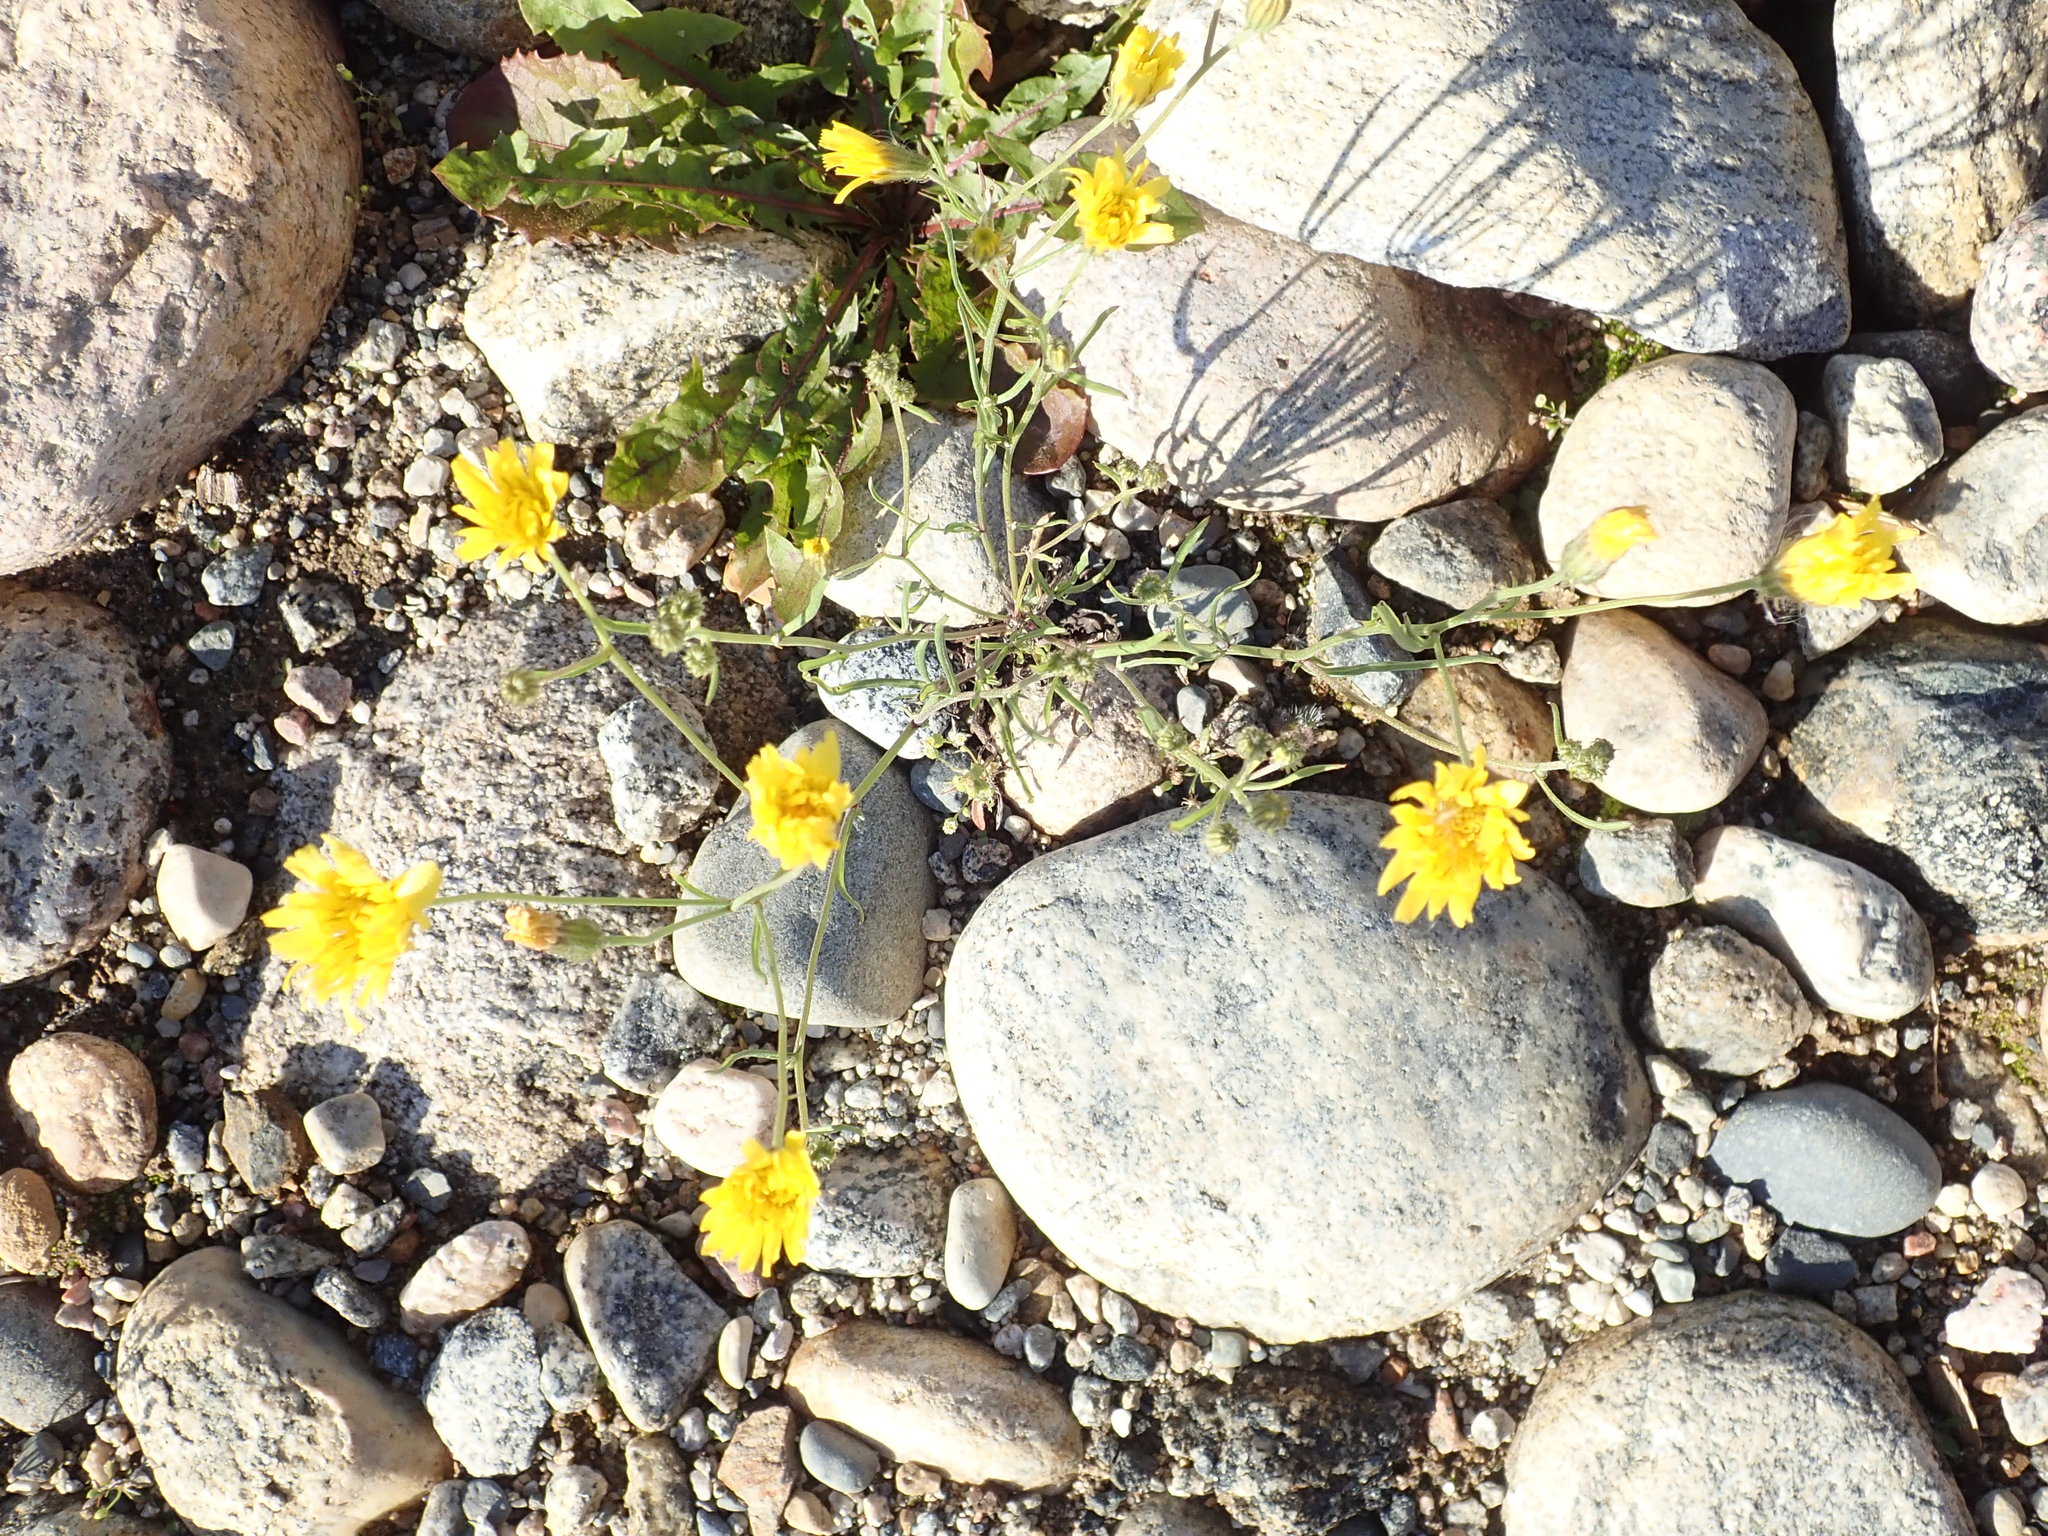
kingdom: Plantae
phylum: Tracheophyta
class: Magnoliopsida
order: Asterales
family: Asteraceae
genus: Crepis
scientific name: Crepis tectorum
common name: Narrow-leaved hawk's-beard
